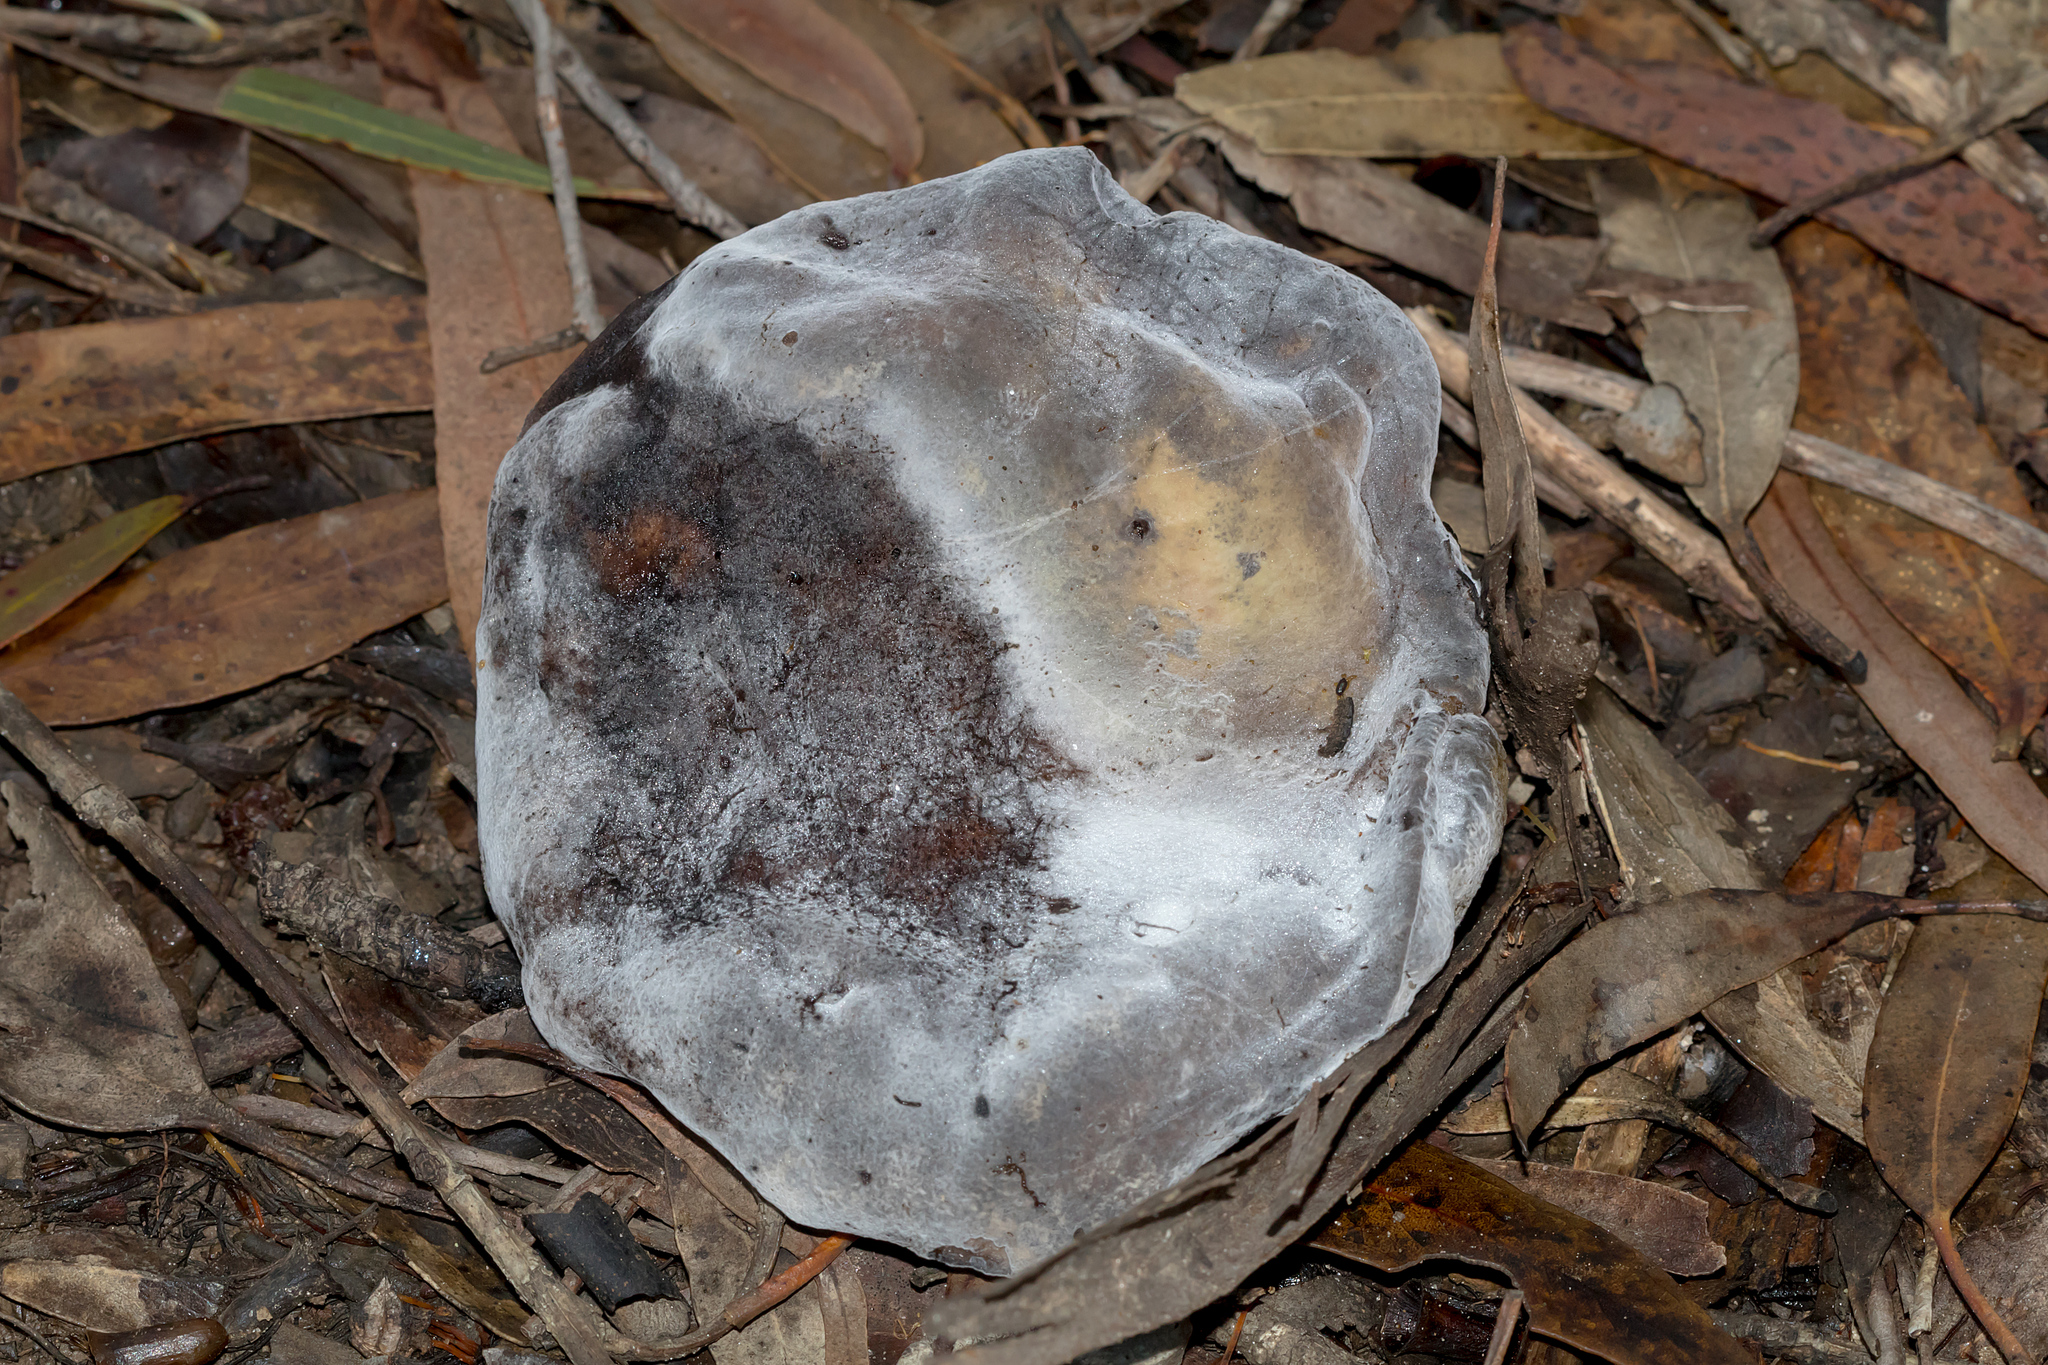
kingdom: Fungi
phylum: Ascomycota
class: Sordariomycetes
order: Hypocreales
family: Hypocreaceae
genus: Hypomyces
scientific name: Hypomyces chrysospermus
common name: Bolete mould
